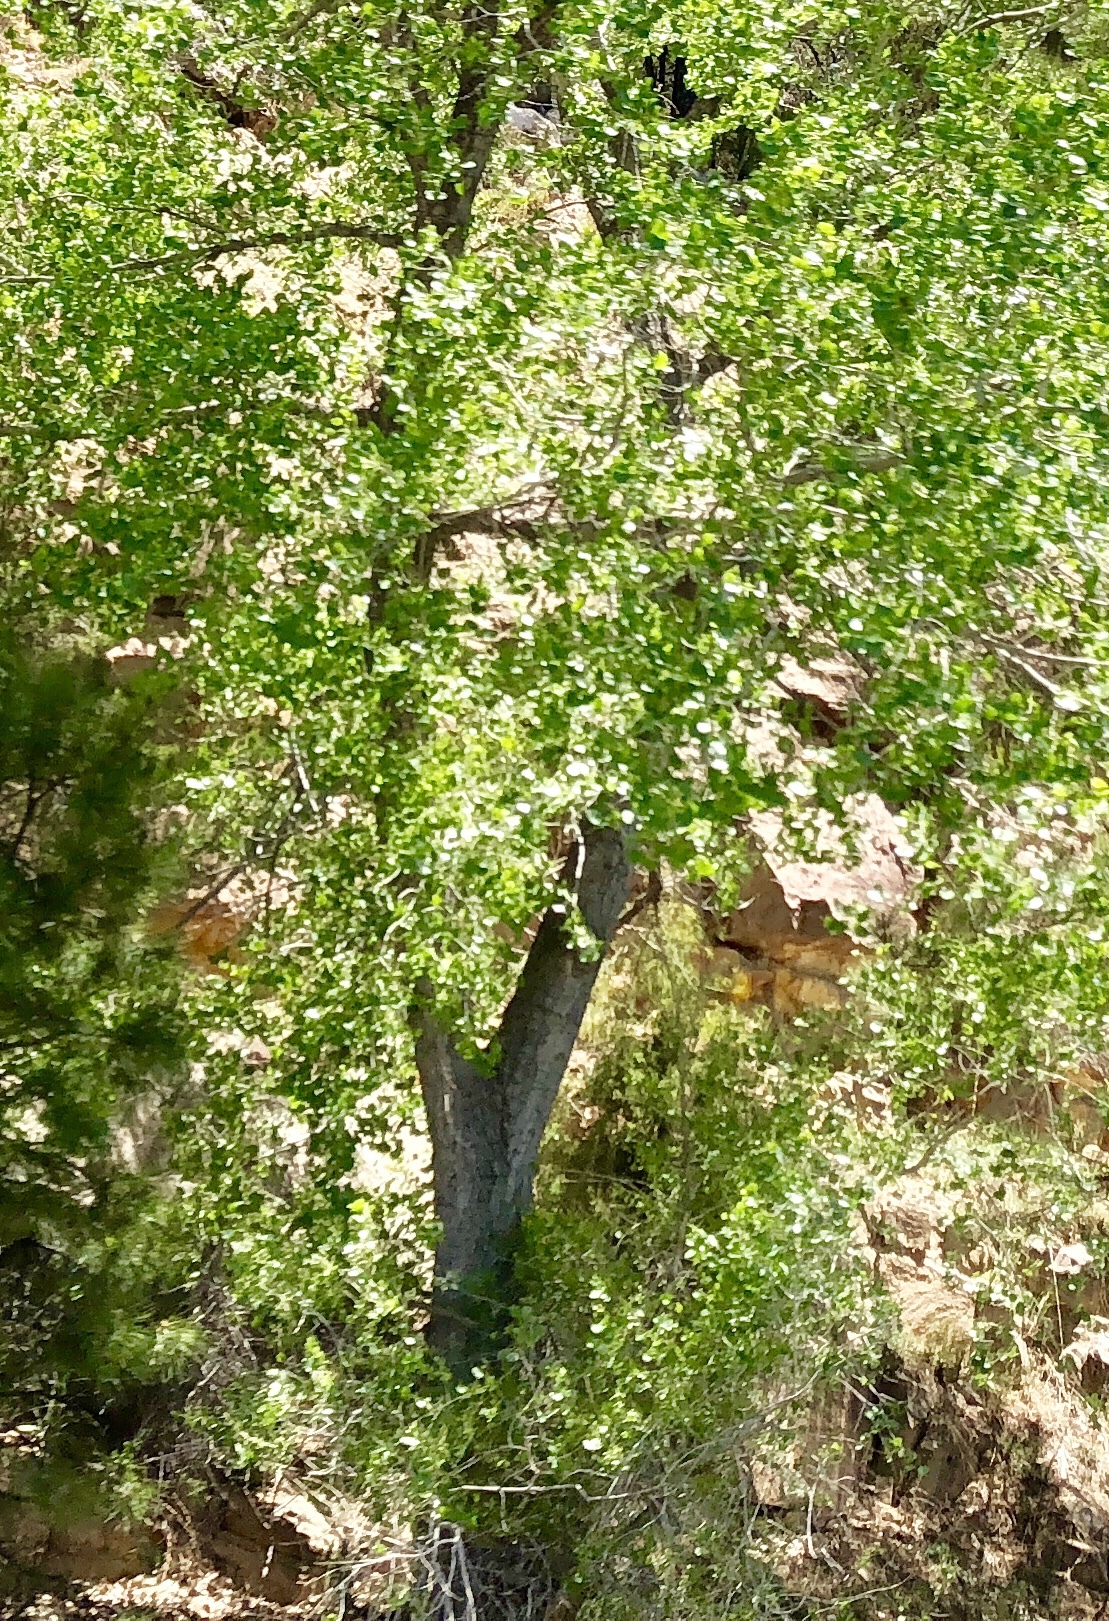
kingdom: Plantae
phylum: Tracheophyta
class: Magnoliopsida
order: Malpighiales
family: Salicaceae
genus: Populus
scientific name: Populus fremontii
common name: Fremont's cottonwood
